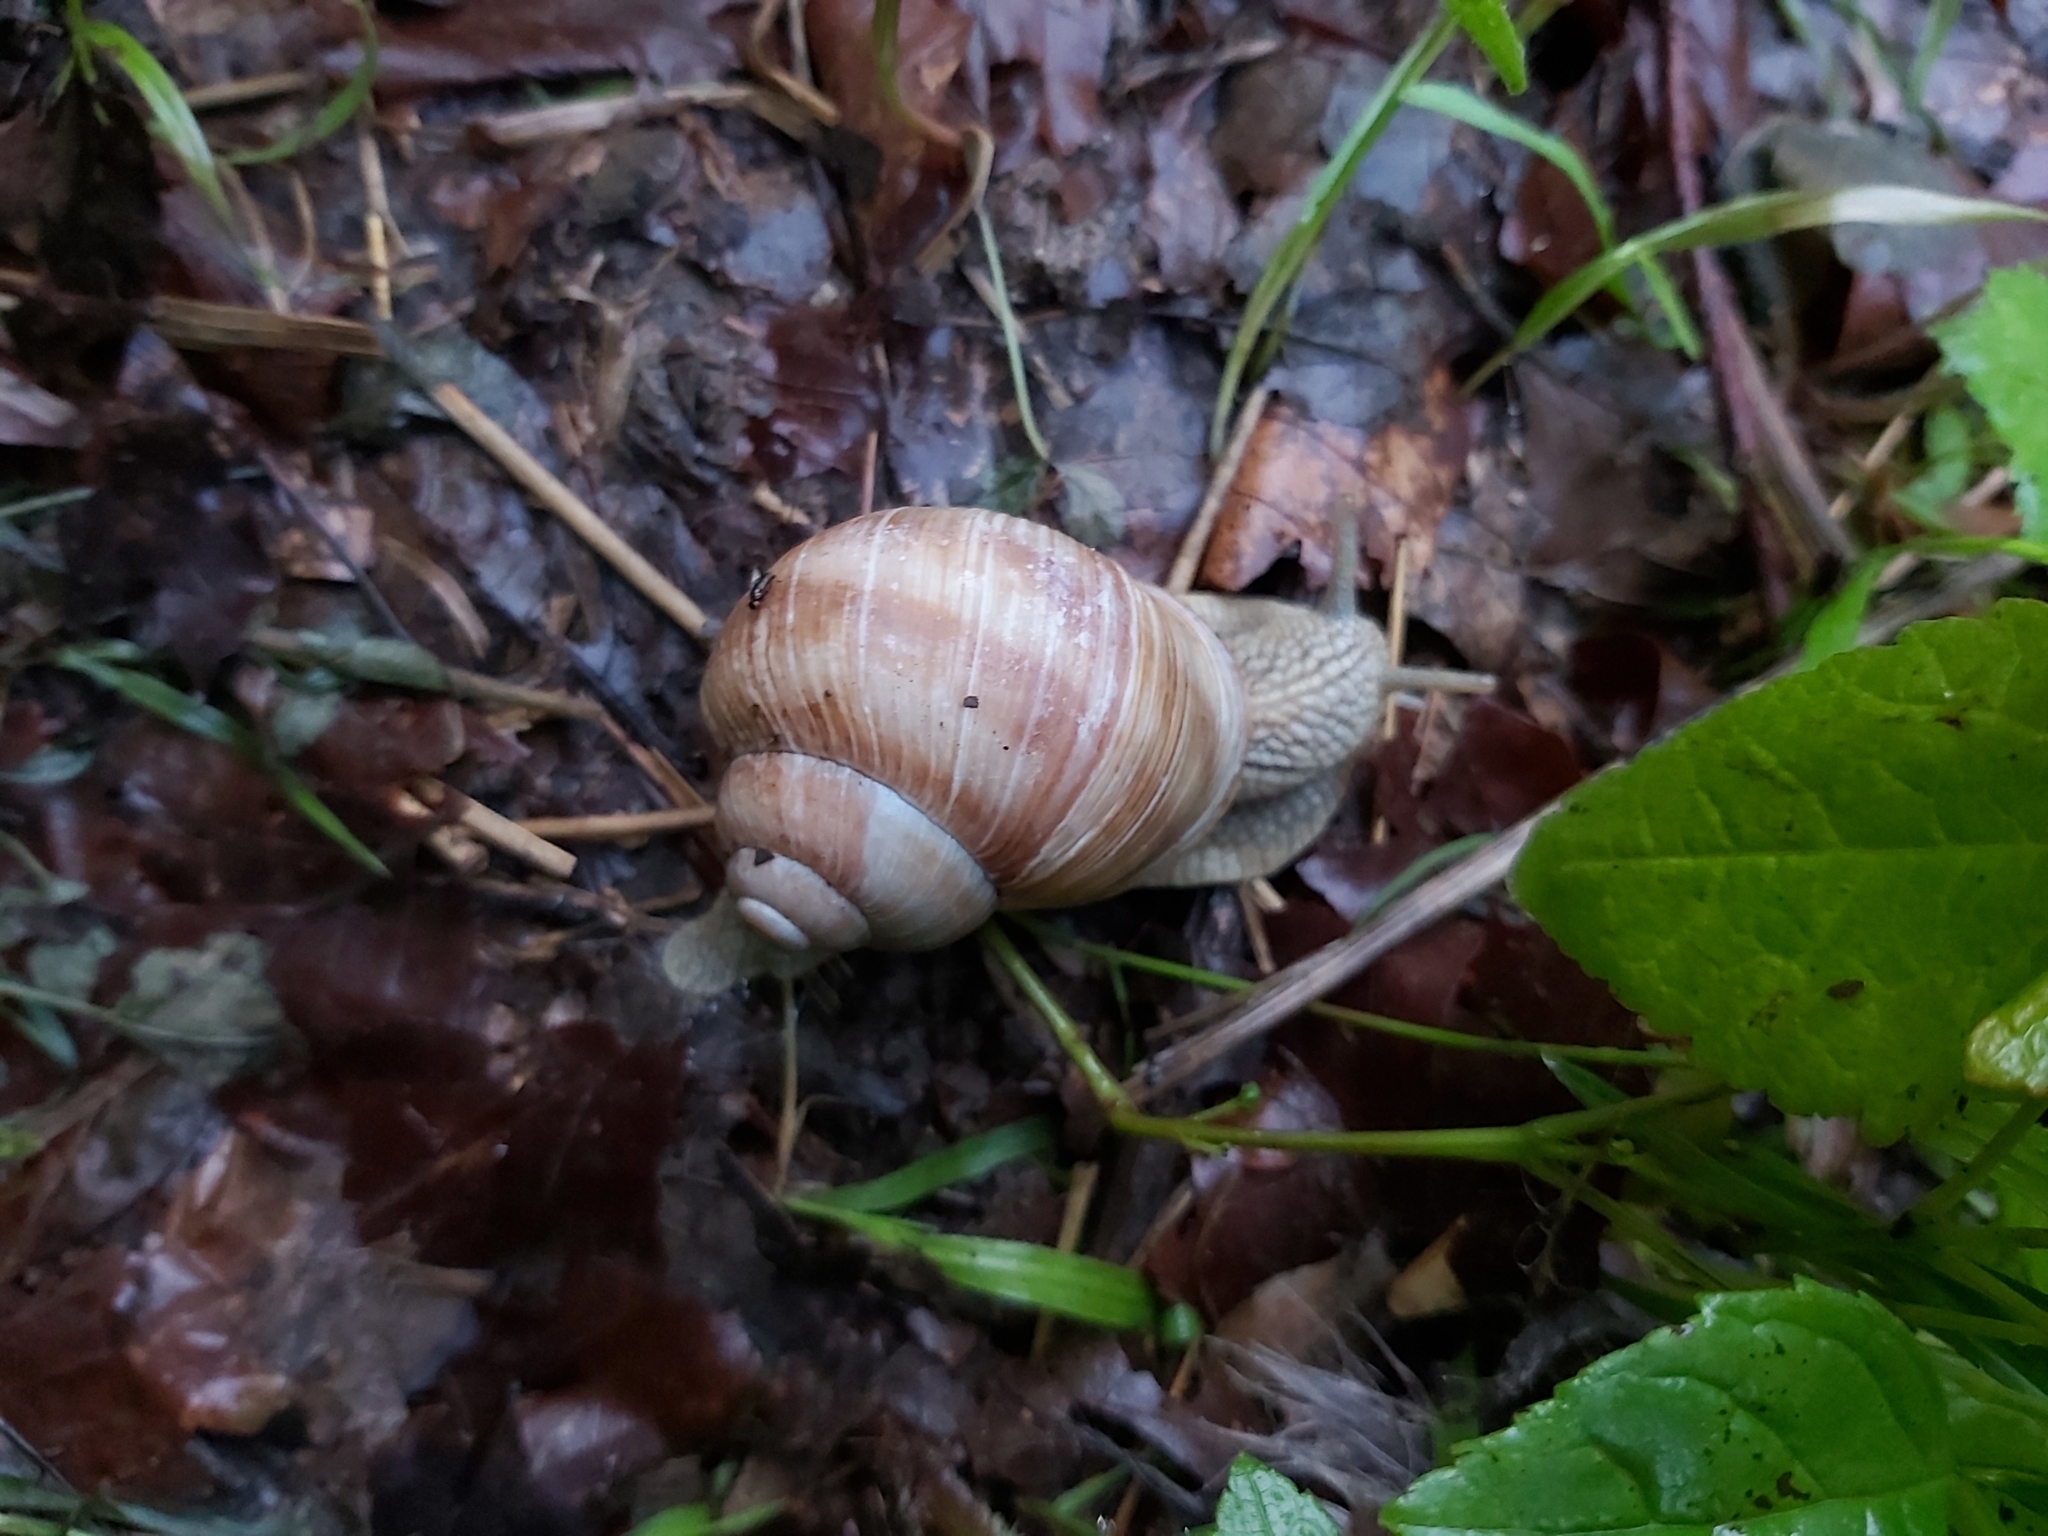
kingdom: Animalia
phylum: Mollusca
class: Gastropoda
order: Stylommatophora
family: Helicidae
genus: Helix
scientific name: Helix pomatia
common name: Roman snail
